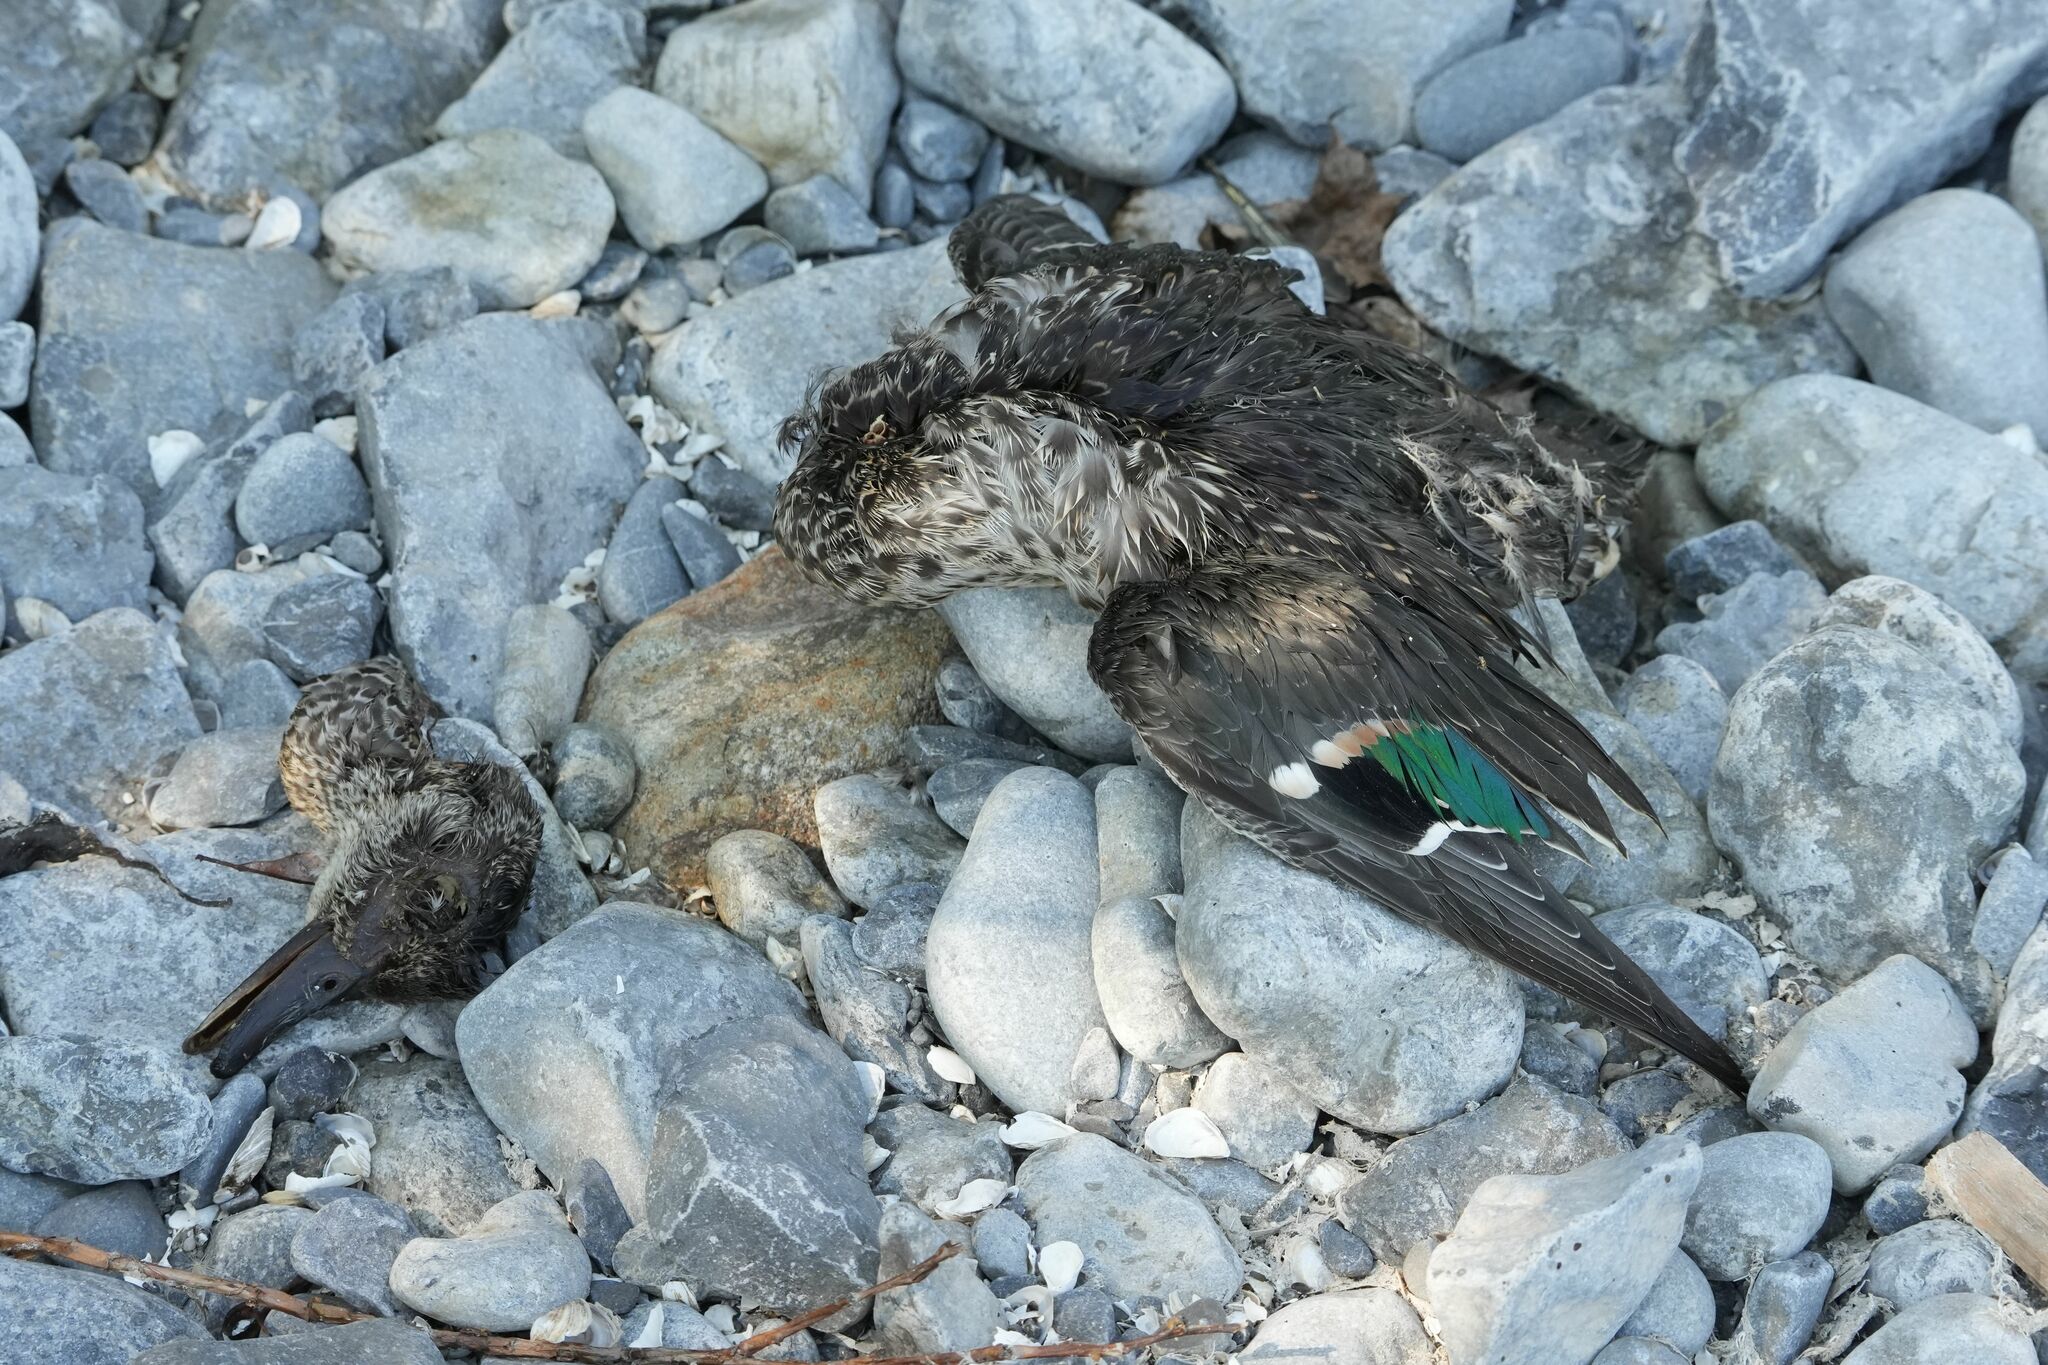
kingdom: Animalia
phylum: Chordata
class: Aves
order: Anseriformes
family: Anatidae
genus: Anas
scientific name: Anas crecca
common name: Eurasian teal
